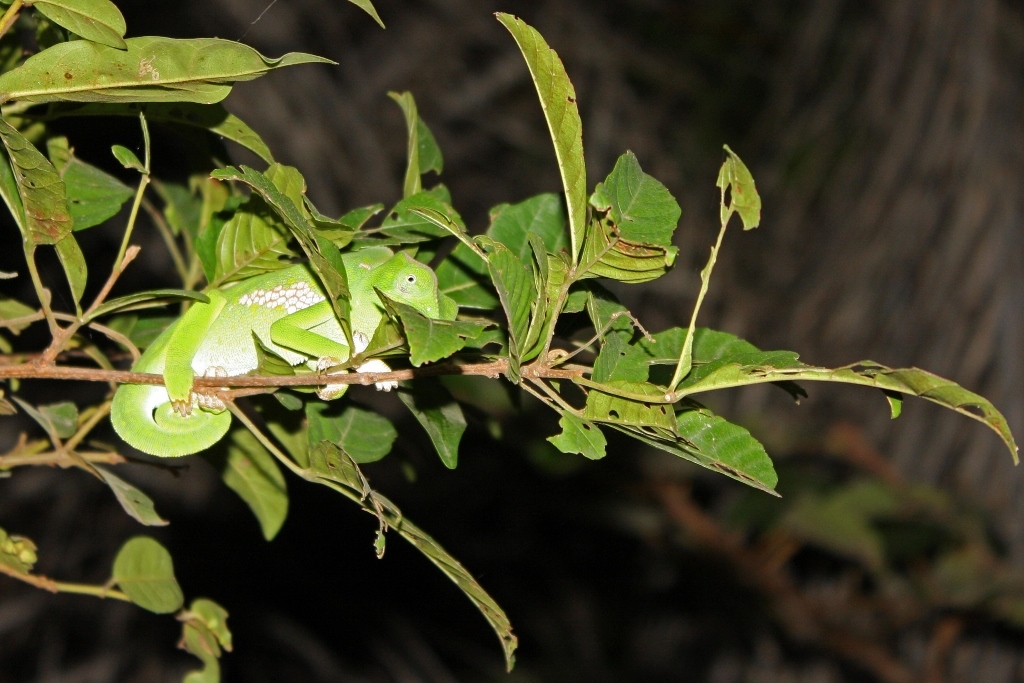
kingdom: Animalia
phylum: Chordata
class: Squamata
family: Chamaeleonidae
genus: Chamaeleo
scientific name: Chamaeleo gracilis
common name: Graceful chameleon
